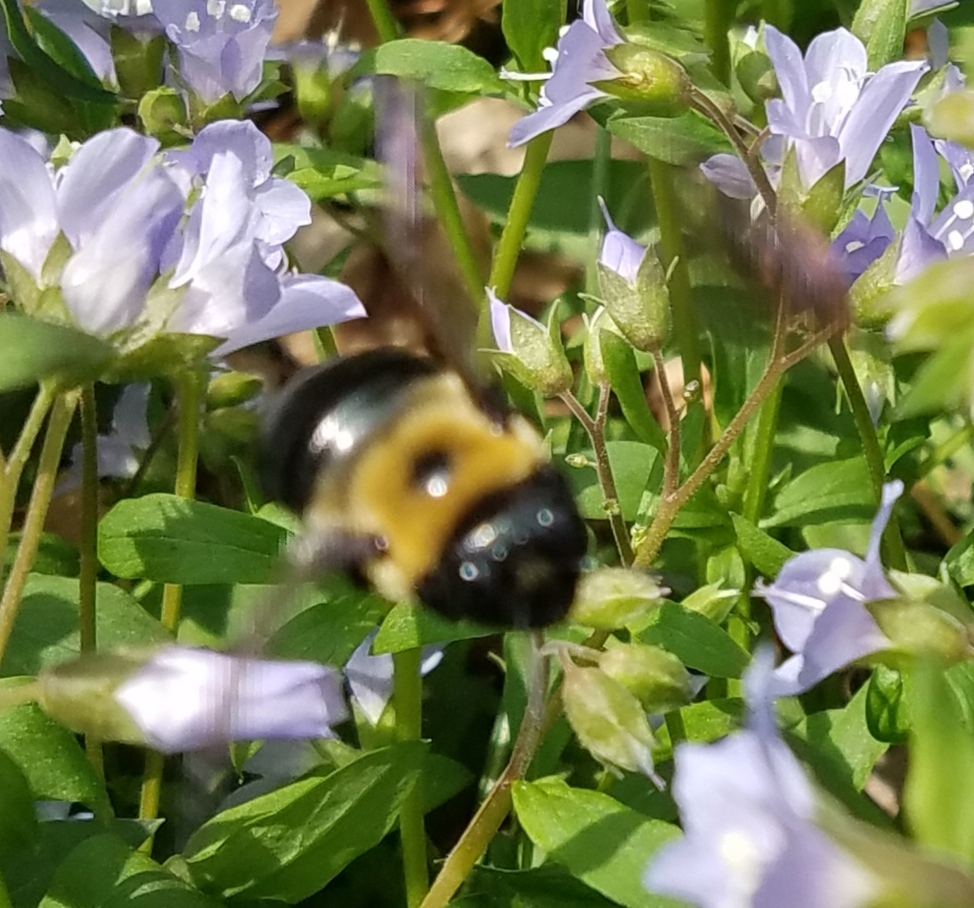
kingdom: Animalia
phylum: Arthropoda
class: Insecta
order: Hymenoptera
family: Apidae
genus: Xylocopa
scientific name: Xylocopa virginica
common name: Carpenter bee
